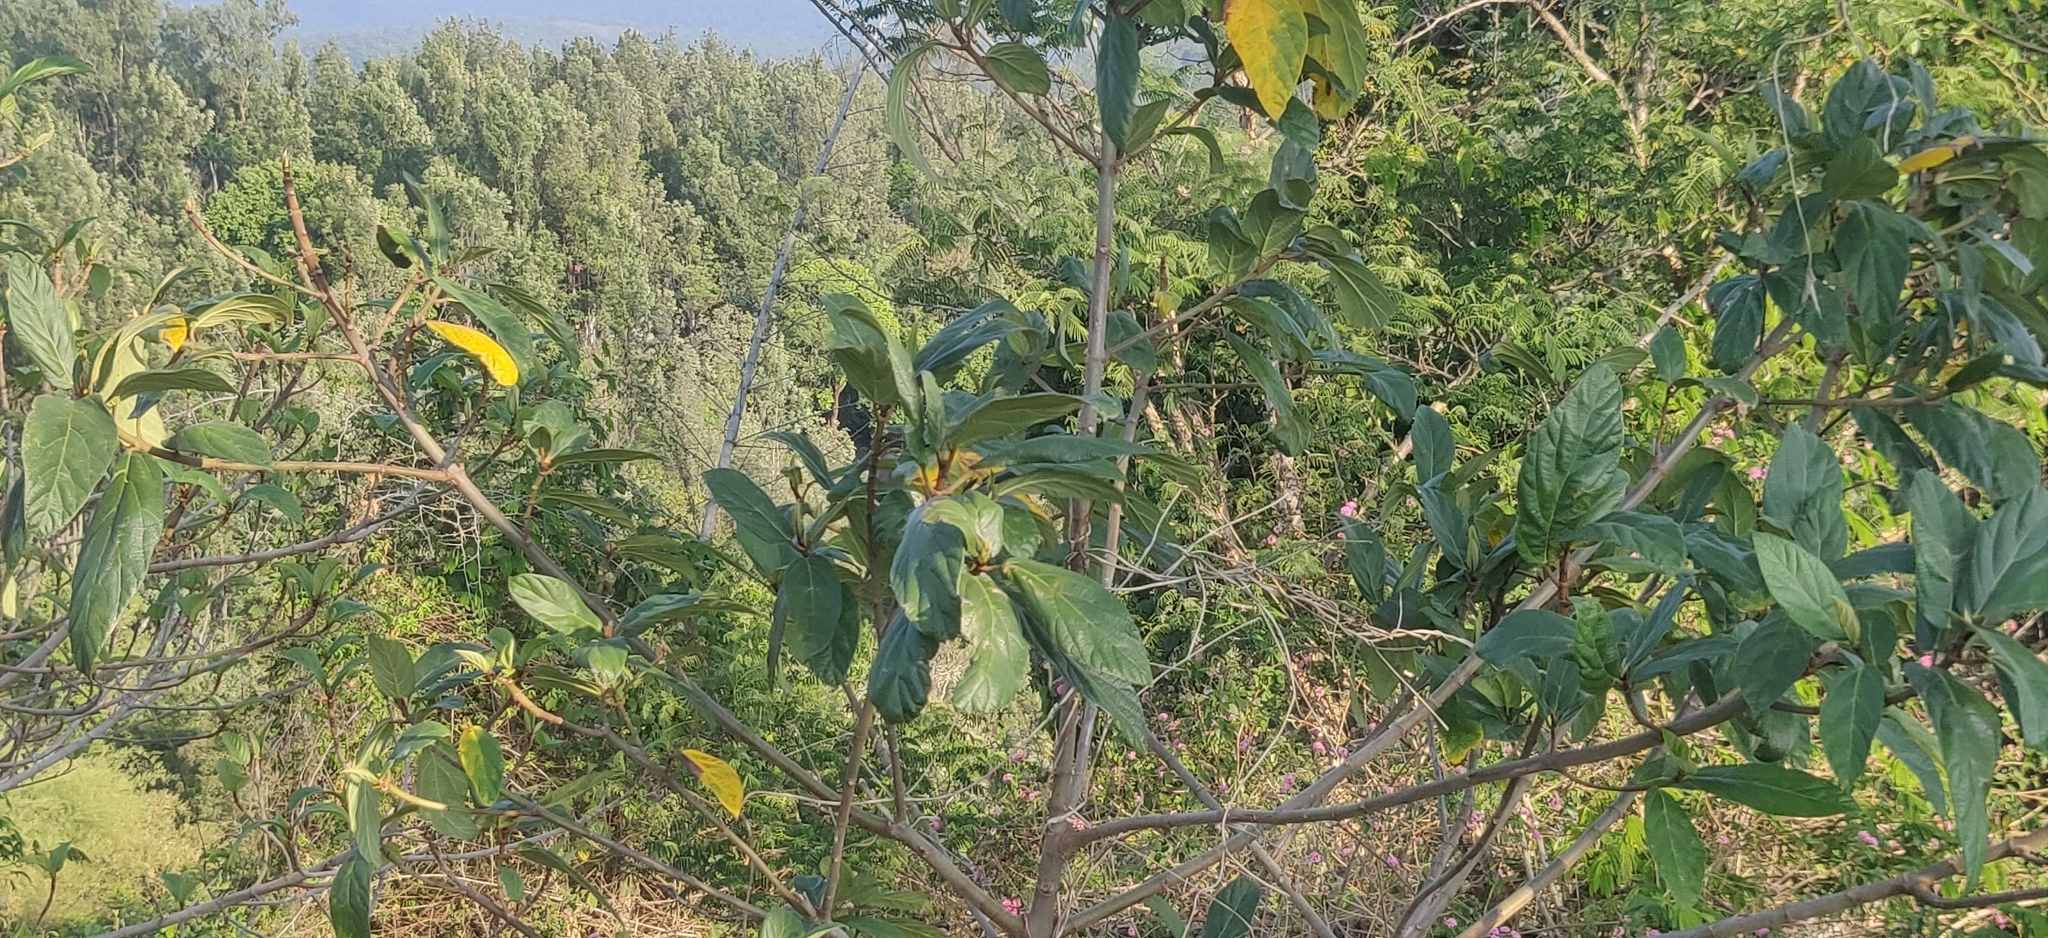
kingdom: Plantae
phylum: Tracheophyta
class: Magnoliopsida
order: Rosales
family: Moraceae
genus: Ficus
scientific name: Ficus hispida
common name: Hairy fig
